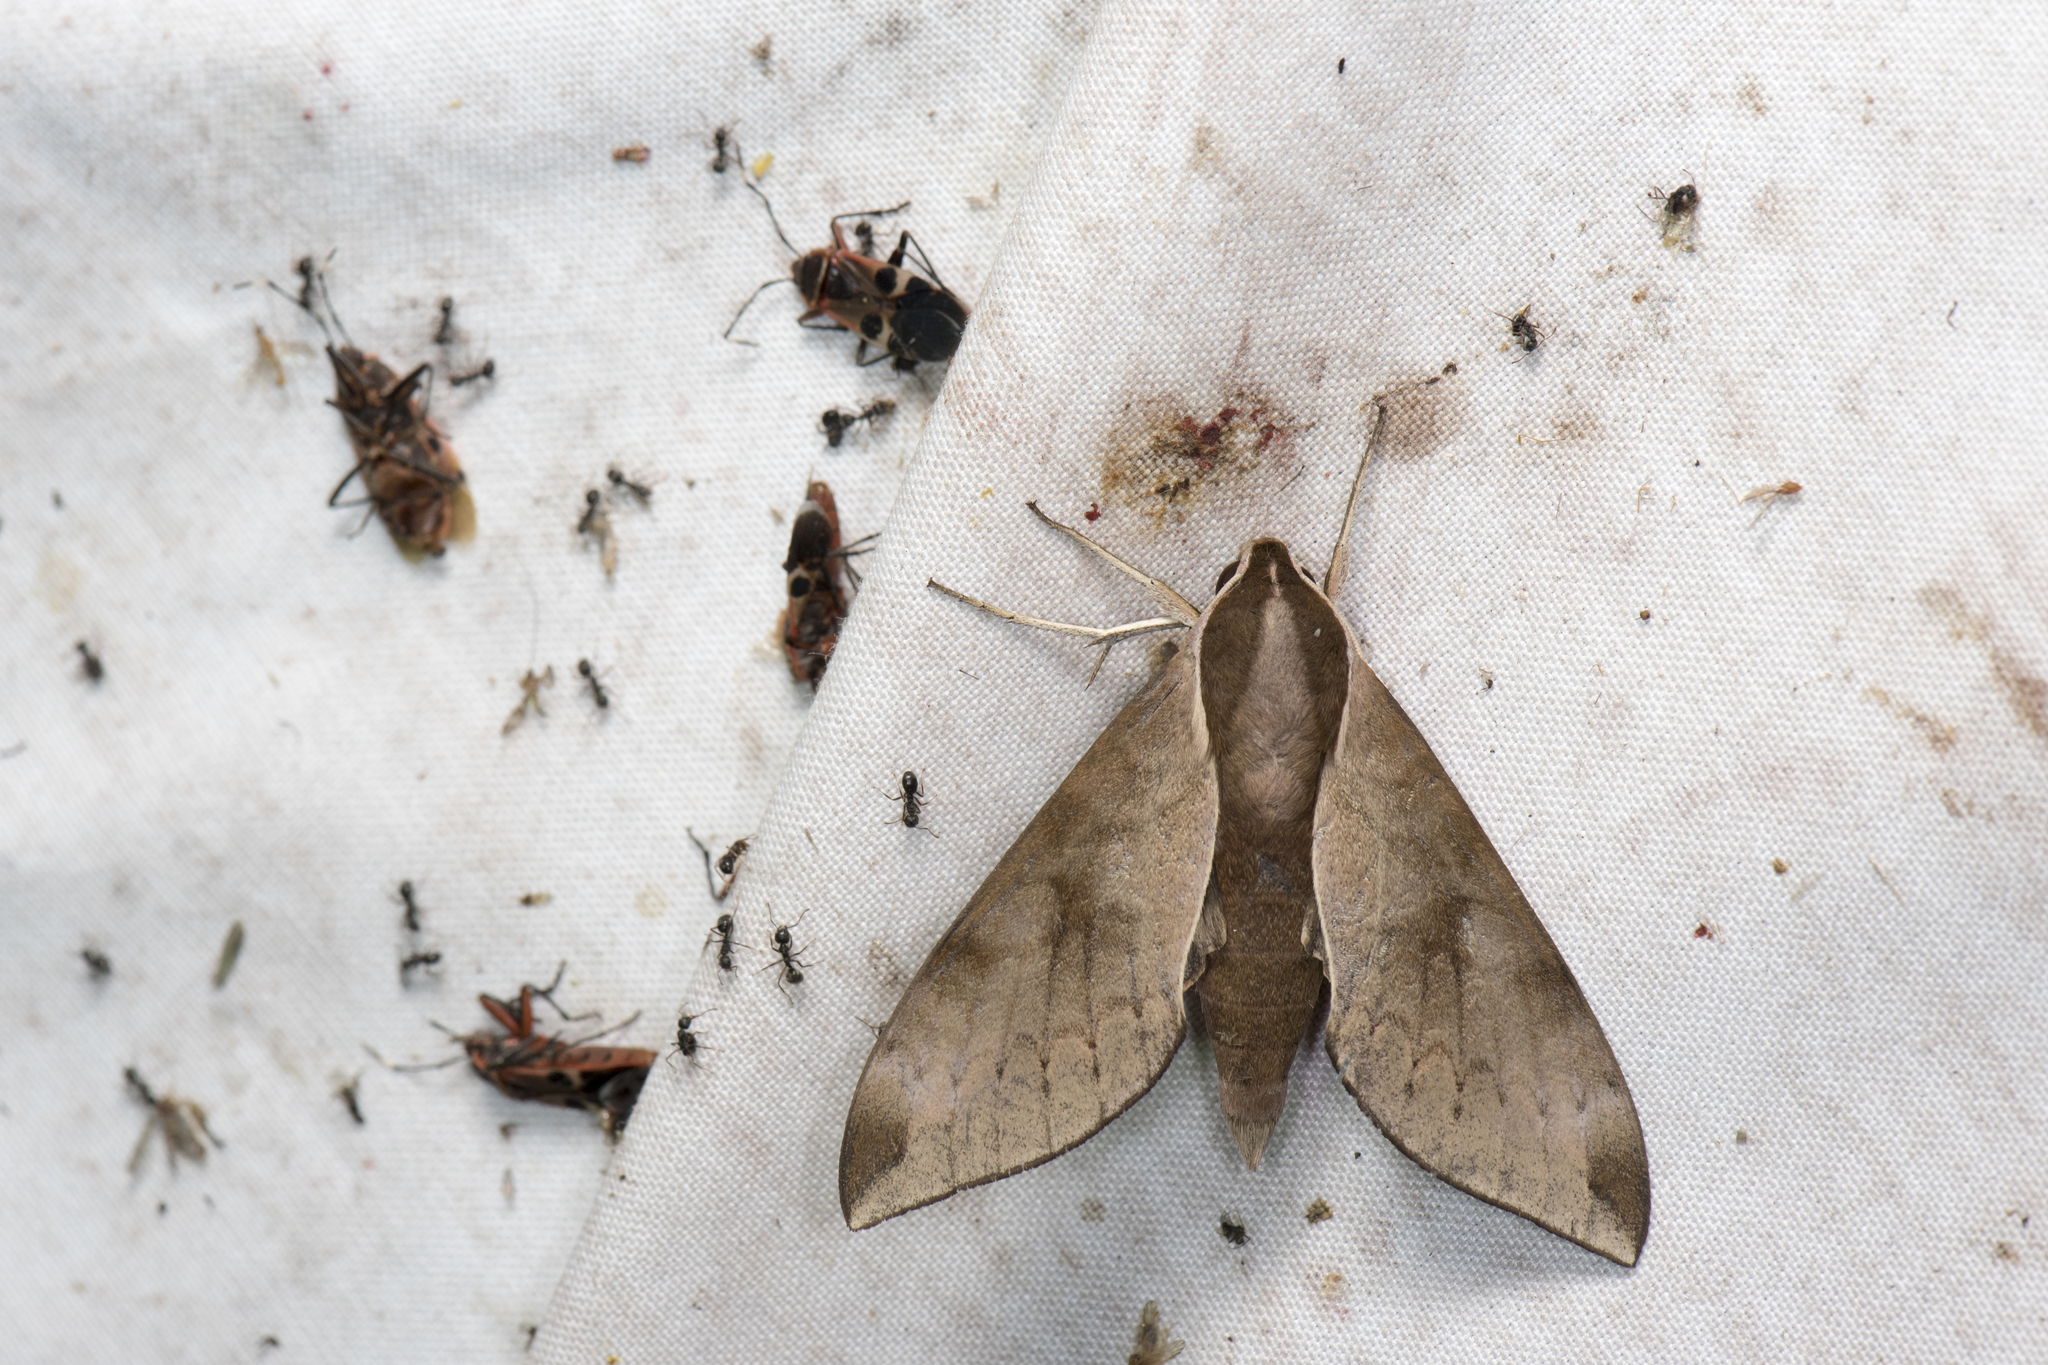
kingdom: Animalia
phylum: Arthropoda
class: Insecta
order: Lepidoptera
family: Sphingidae
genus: Acosmerycoides
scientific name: Acosmerycoides harterti
